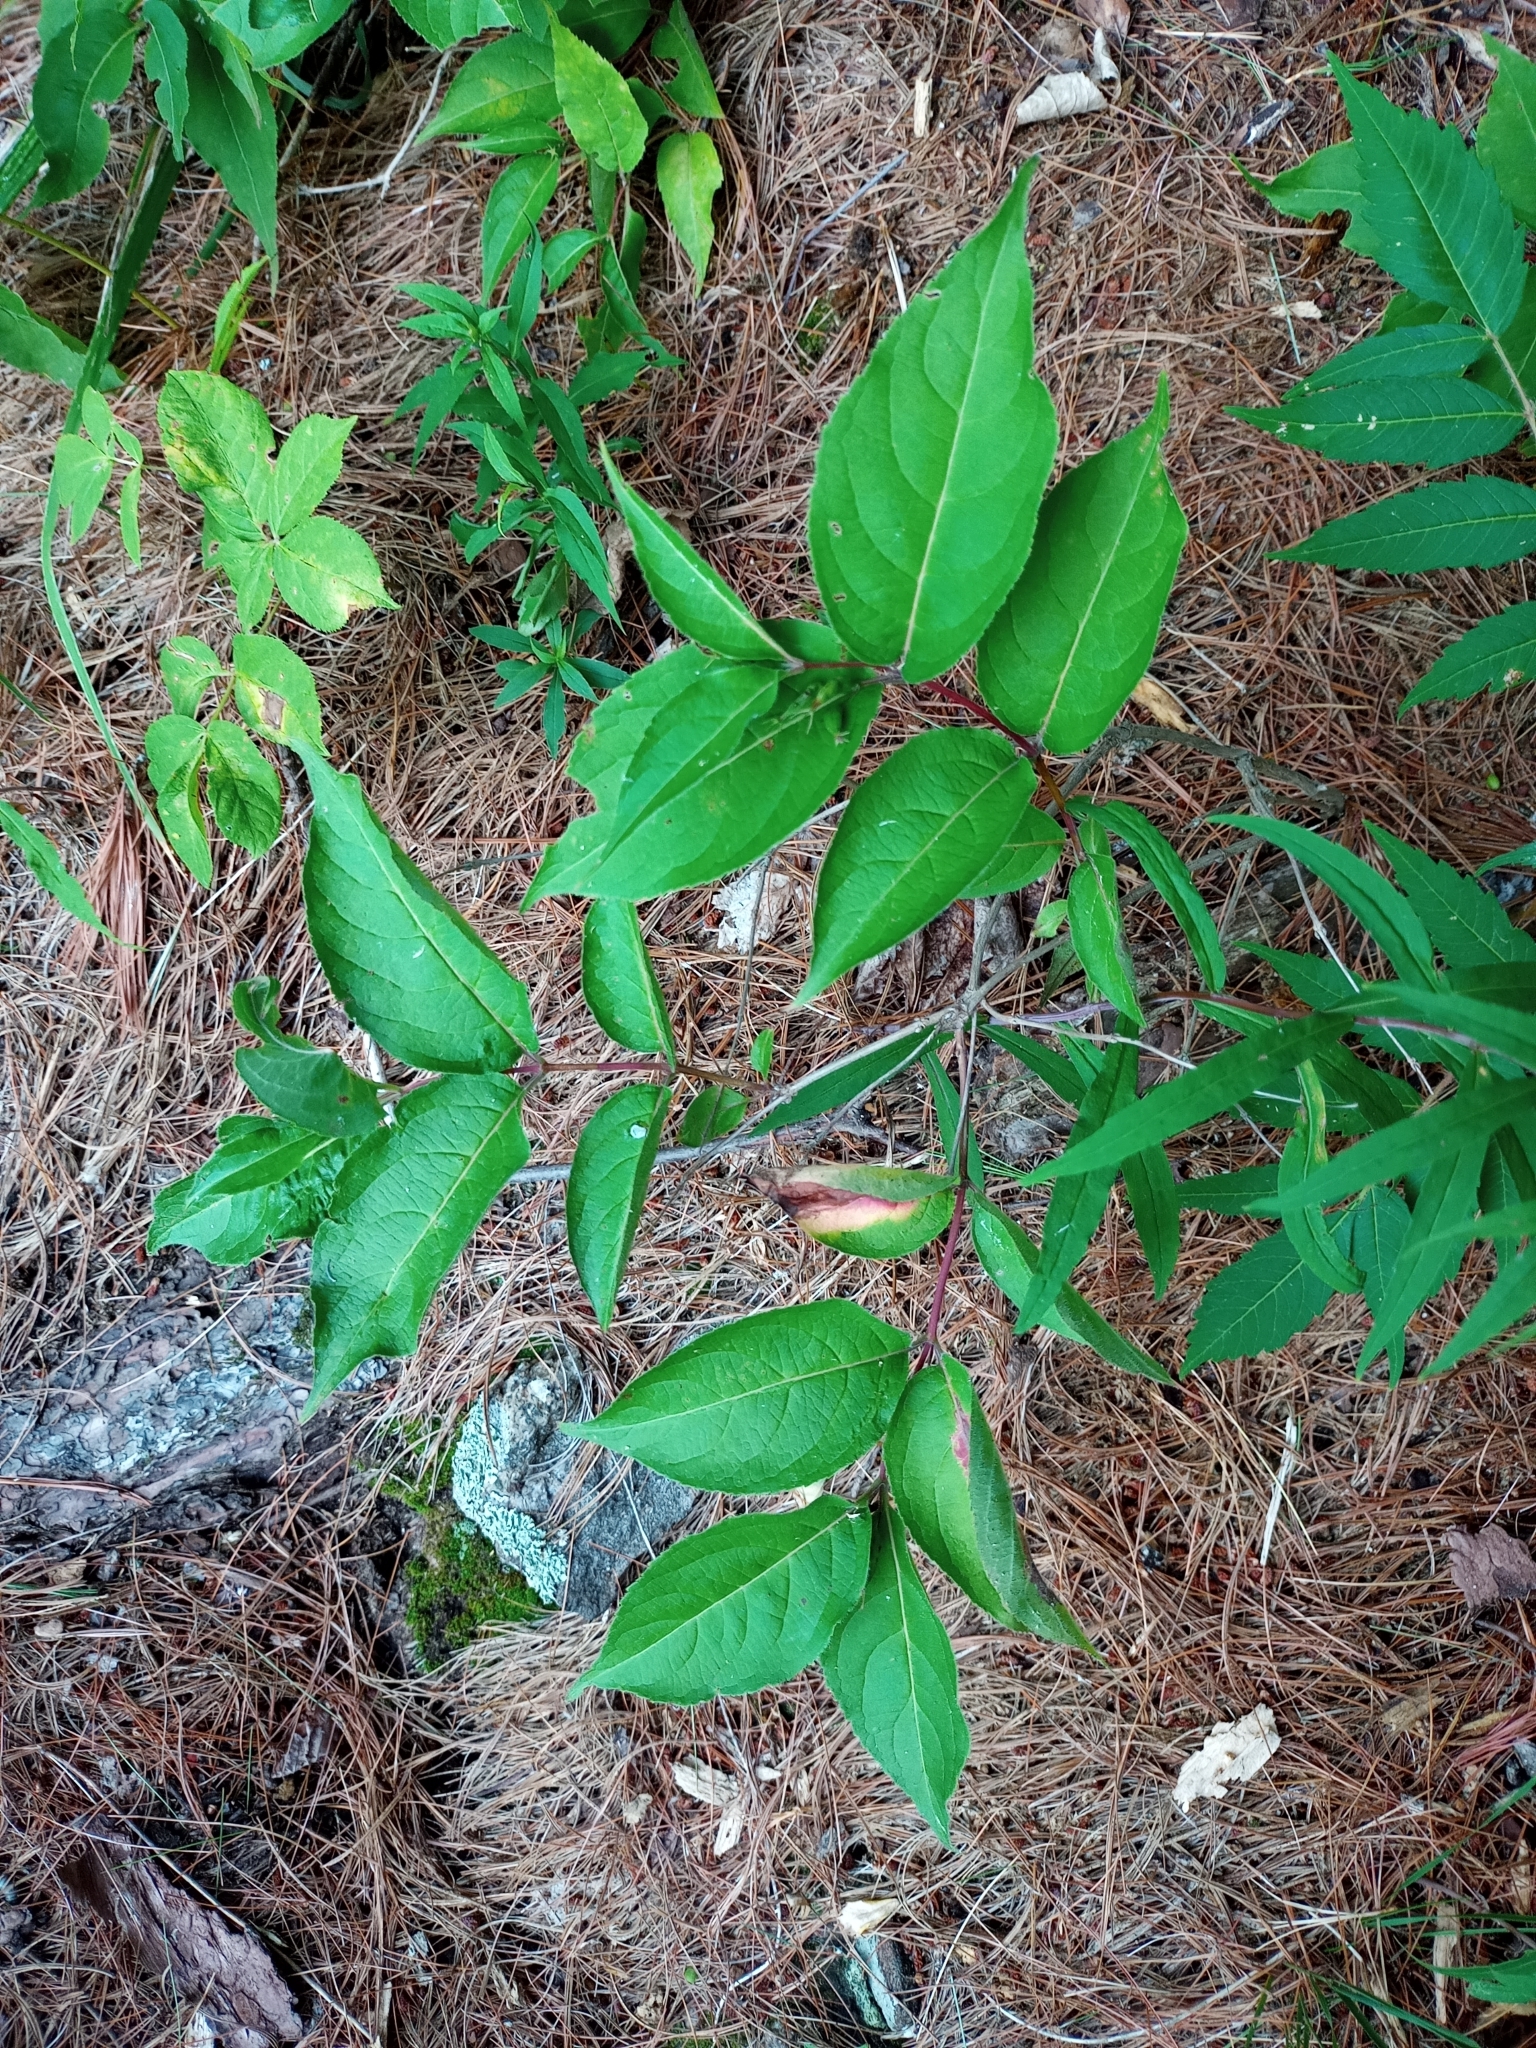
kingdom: Plantae
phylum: Tracheophyta
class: Magnoliopsida
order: Dipsacales
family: Caprifoliaceae
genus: Diervilla
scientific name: Diervilla lonicera
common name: Bush-honeysuckle
